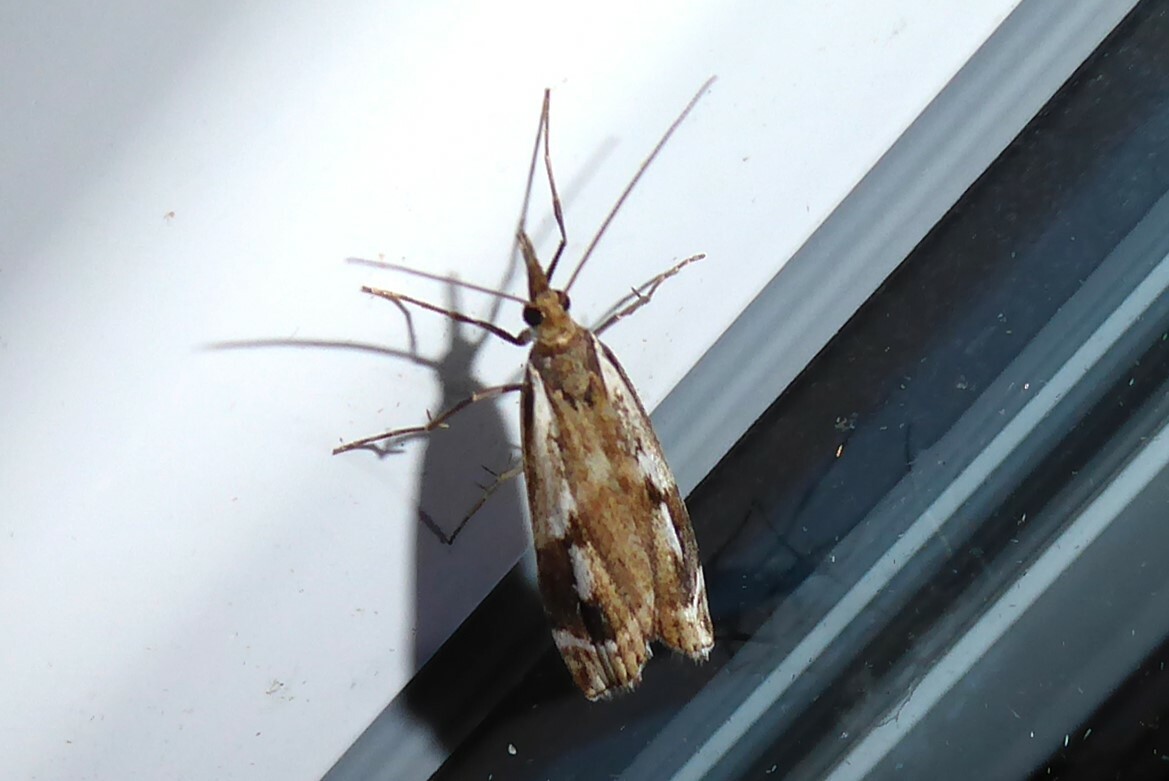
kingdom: Animalia
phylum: Arthropoda
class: Insecta
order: Lepidoptera
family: Crambidae
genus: Orocrambus
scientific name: Orocrambus vulgaris
